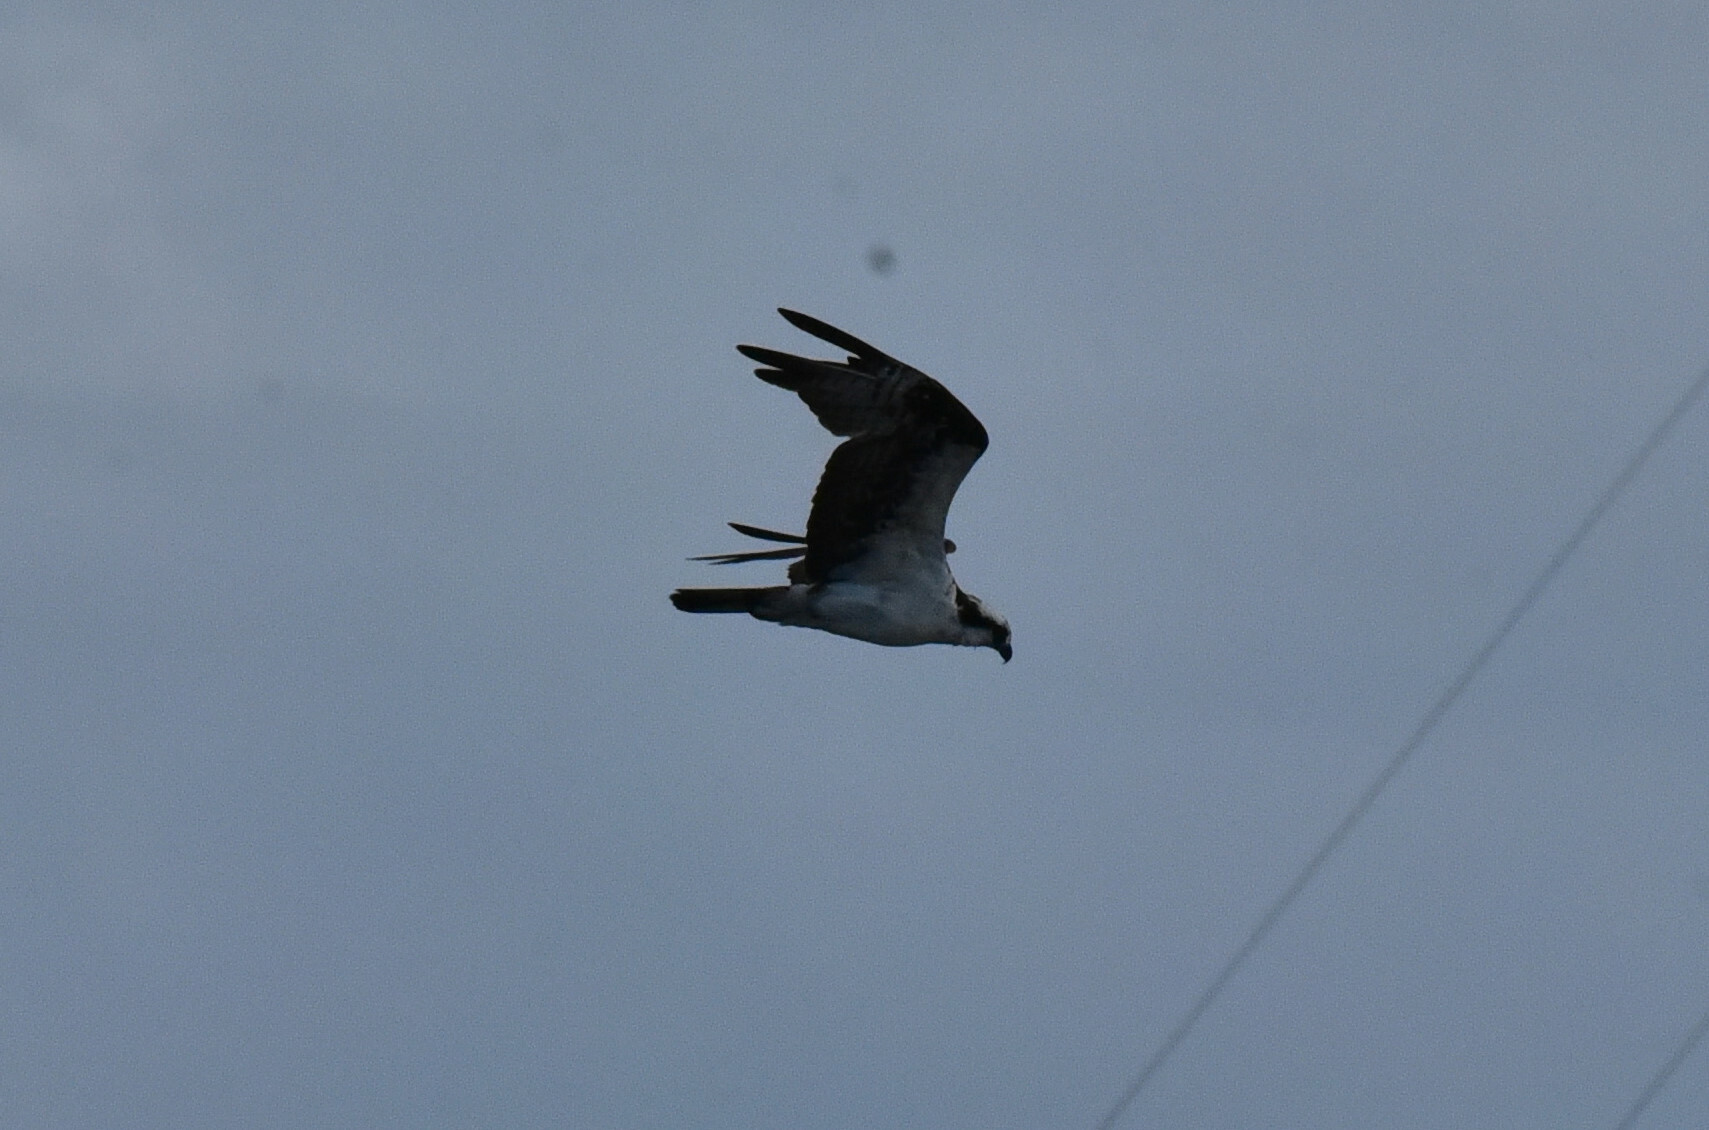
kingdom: Animalia
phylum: Chordata
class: Aves
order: Accipitriformes
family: Pandionidae
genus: Pandion
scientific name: Pandion haliaetus
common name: Osprey
